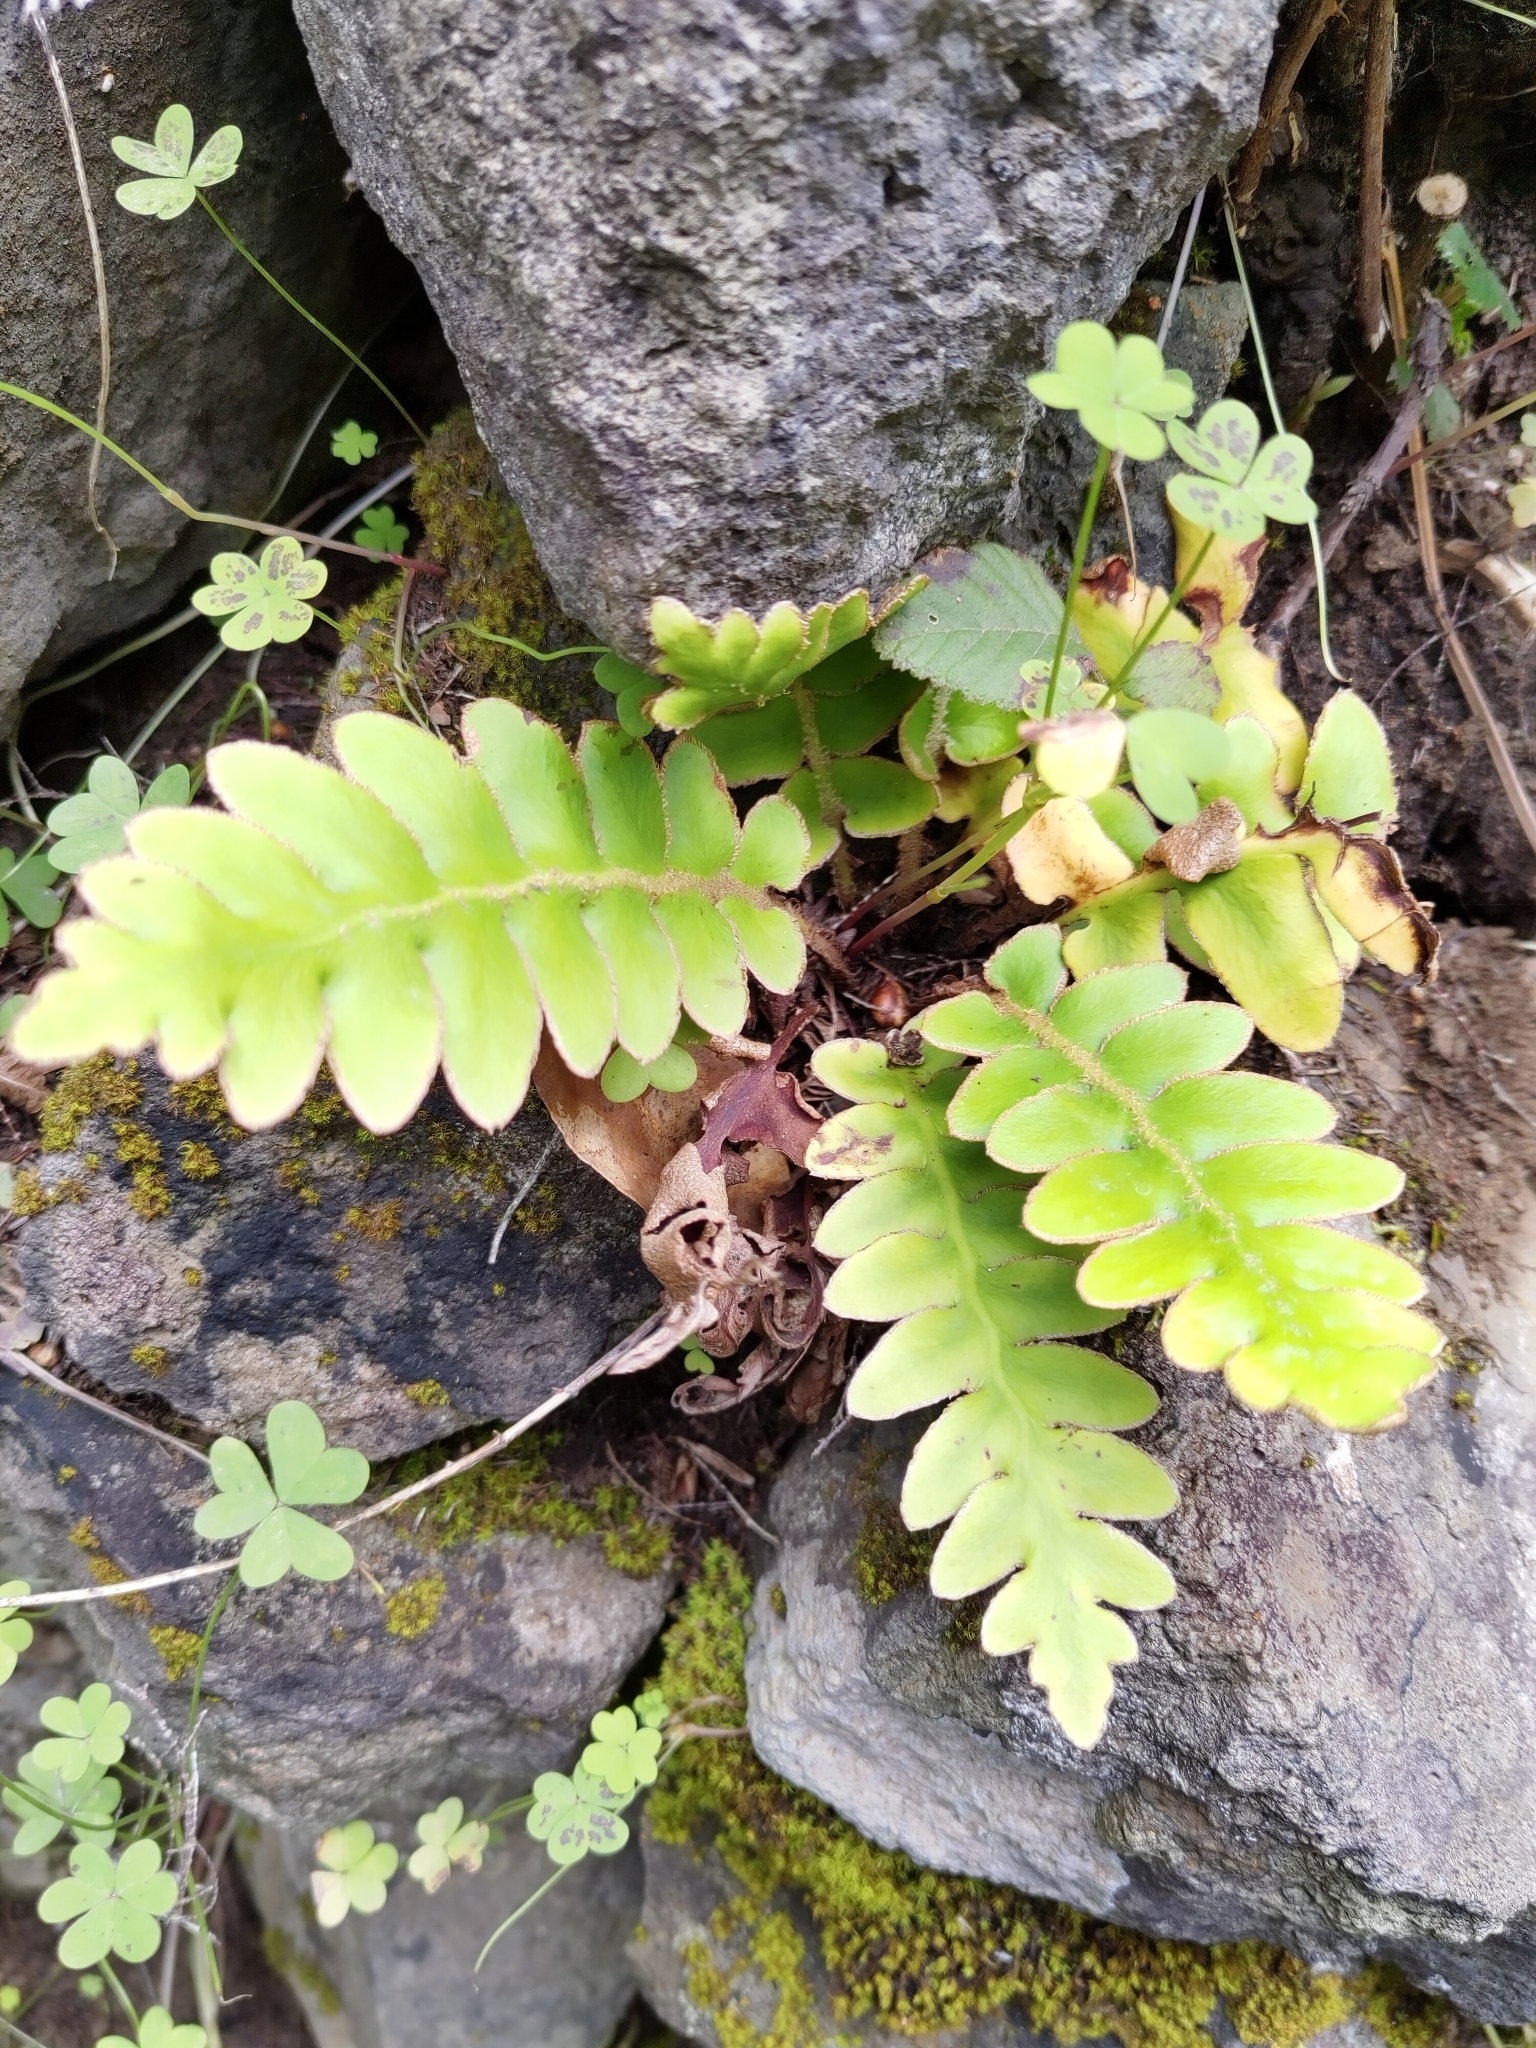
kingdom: Plantae
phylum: Tracheophyta
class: Polypodiopsida
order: Polypodiales
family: Aspleniaceae
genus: Asplenium
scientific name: Asplenium aureum
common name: Golden rustyback fern
